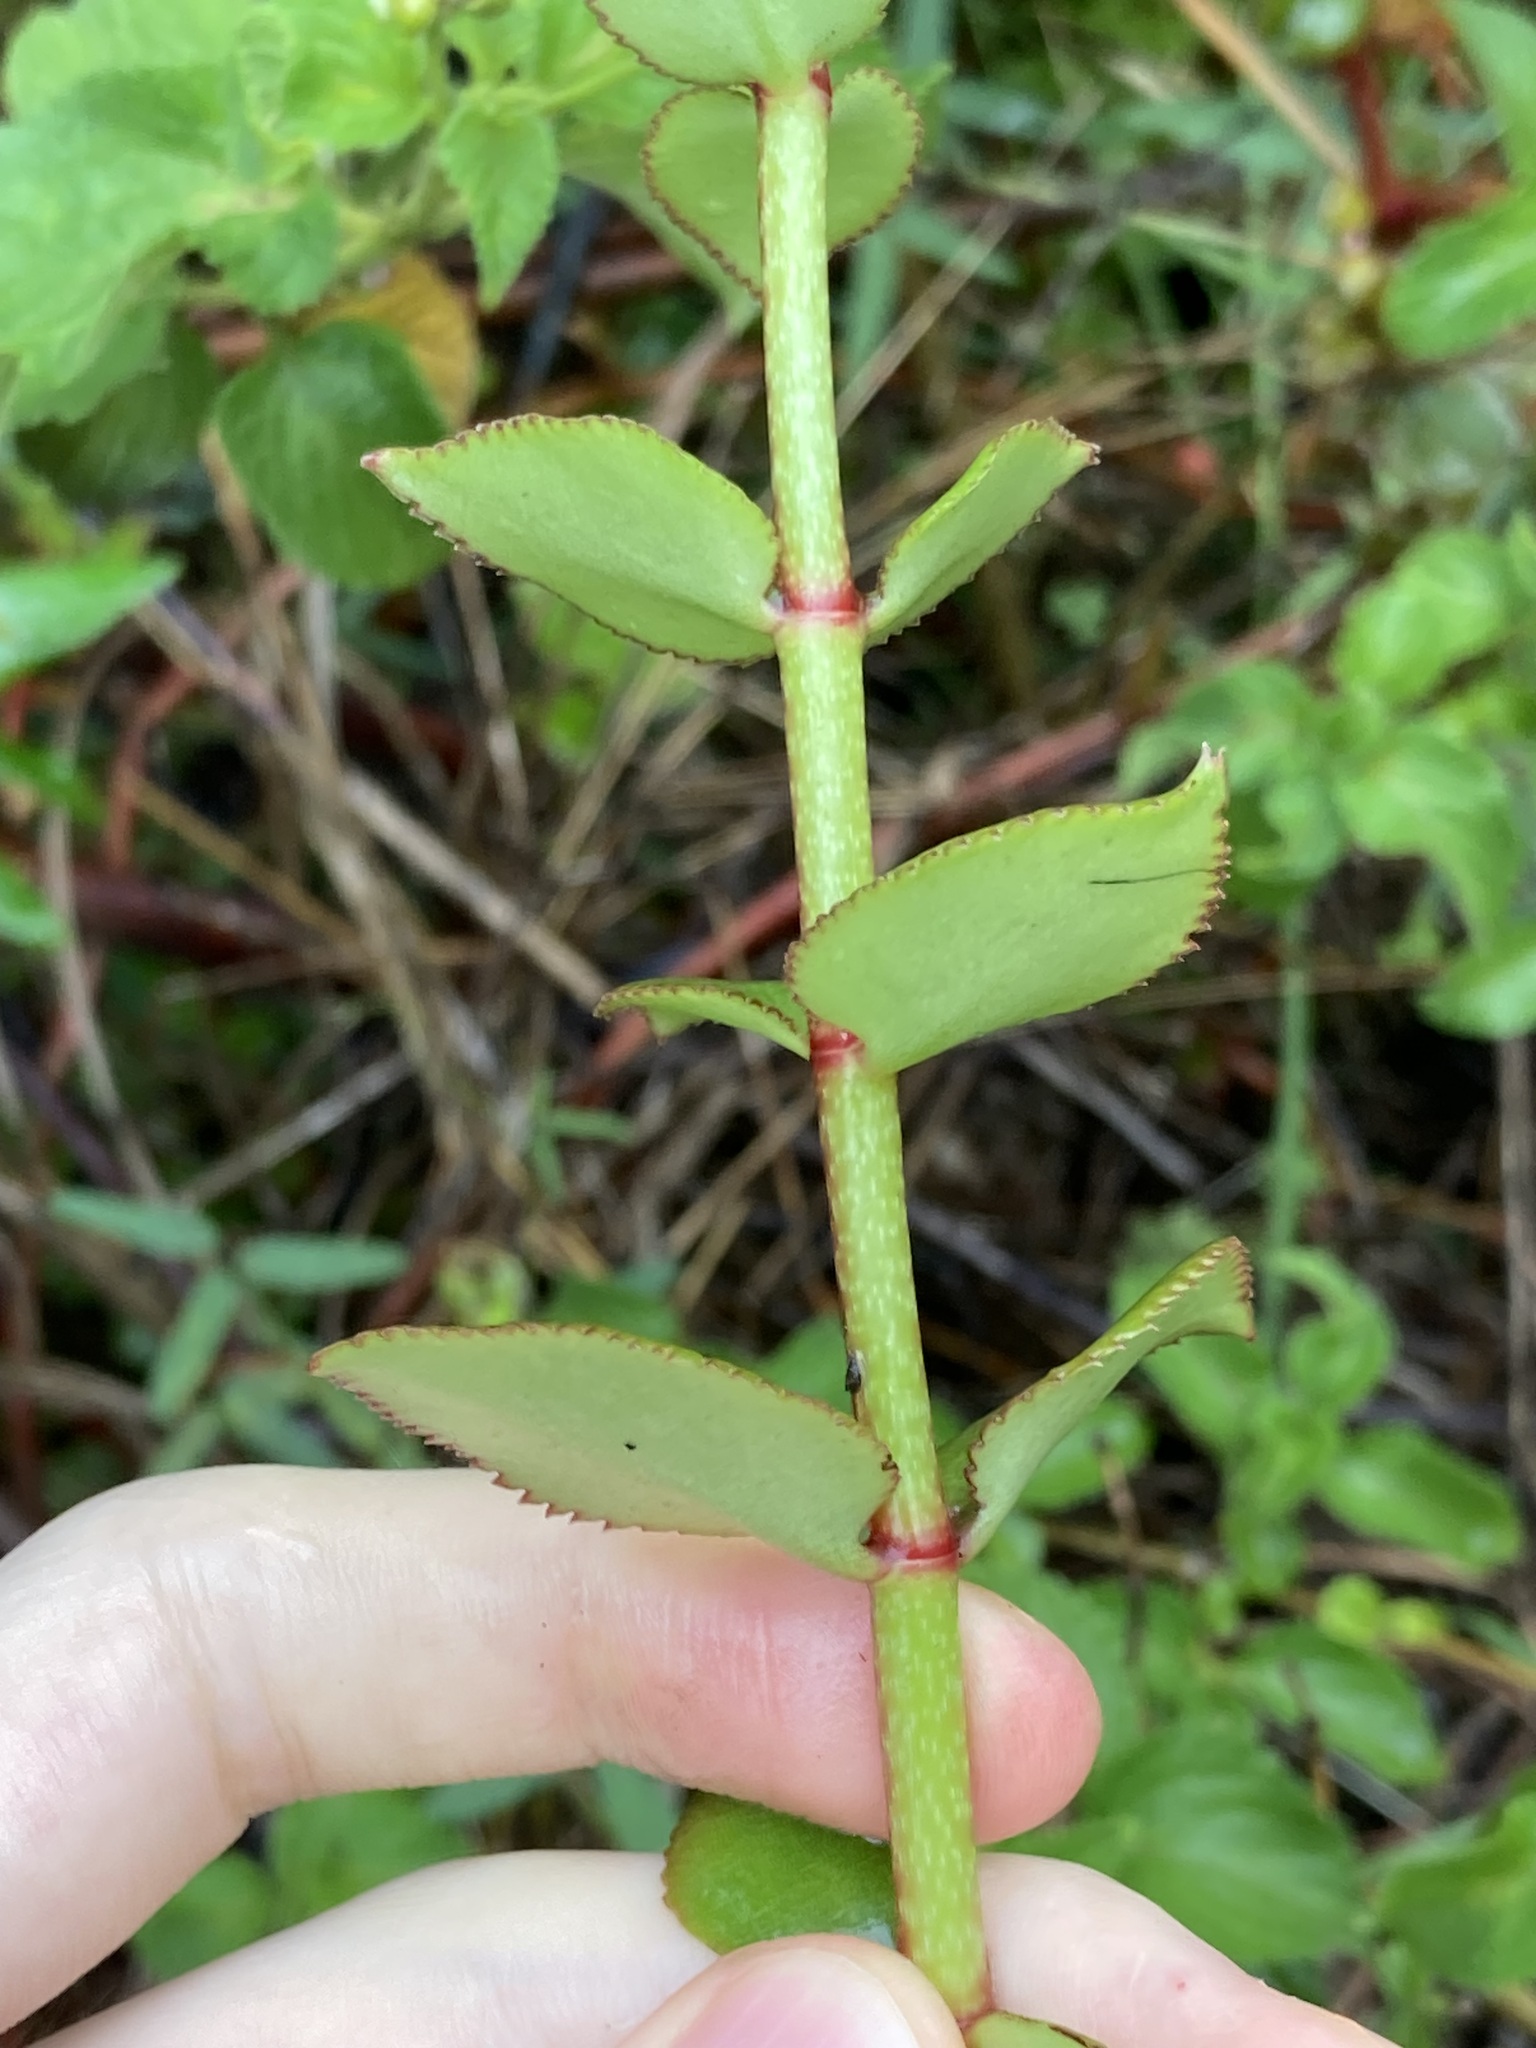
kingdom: Plantae
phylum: Tracheophyta
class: Magnoliopsida
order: Saxifragales
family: Crassulaceae
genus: Crassula
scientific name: Crassula sarmentosa
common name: Jade-tree
